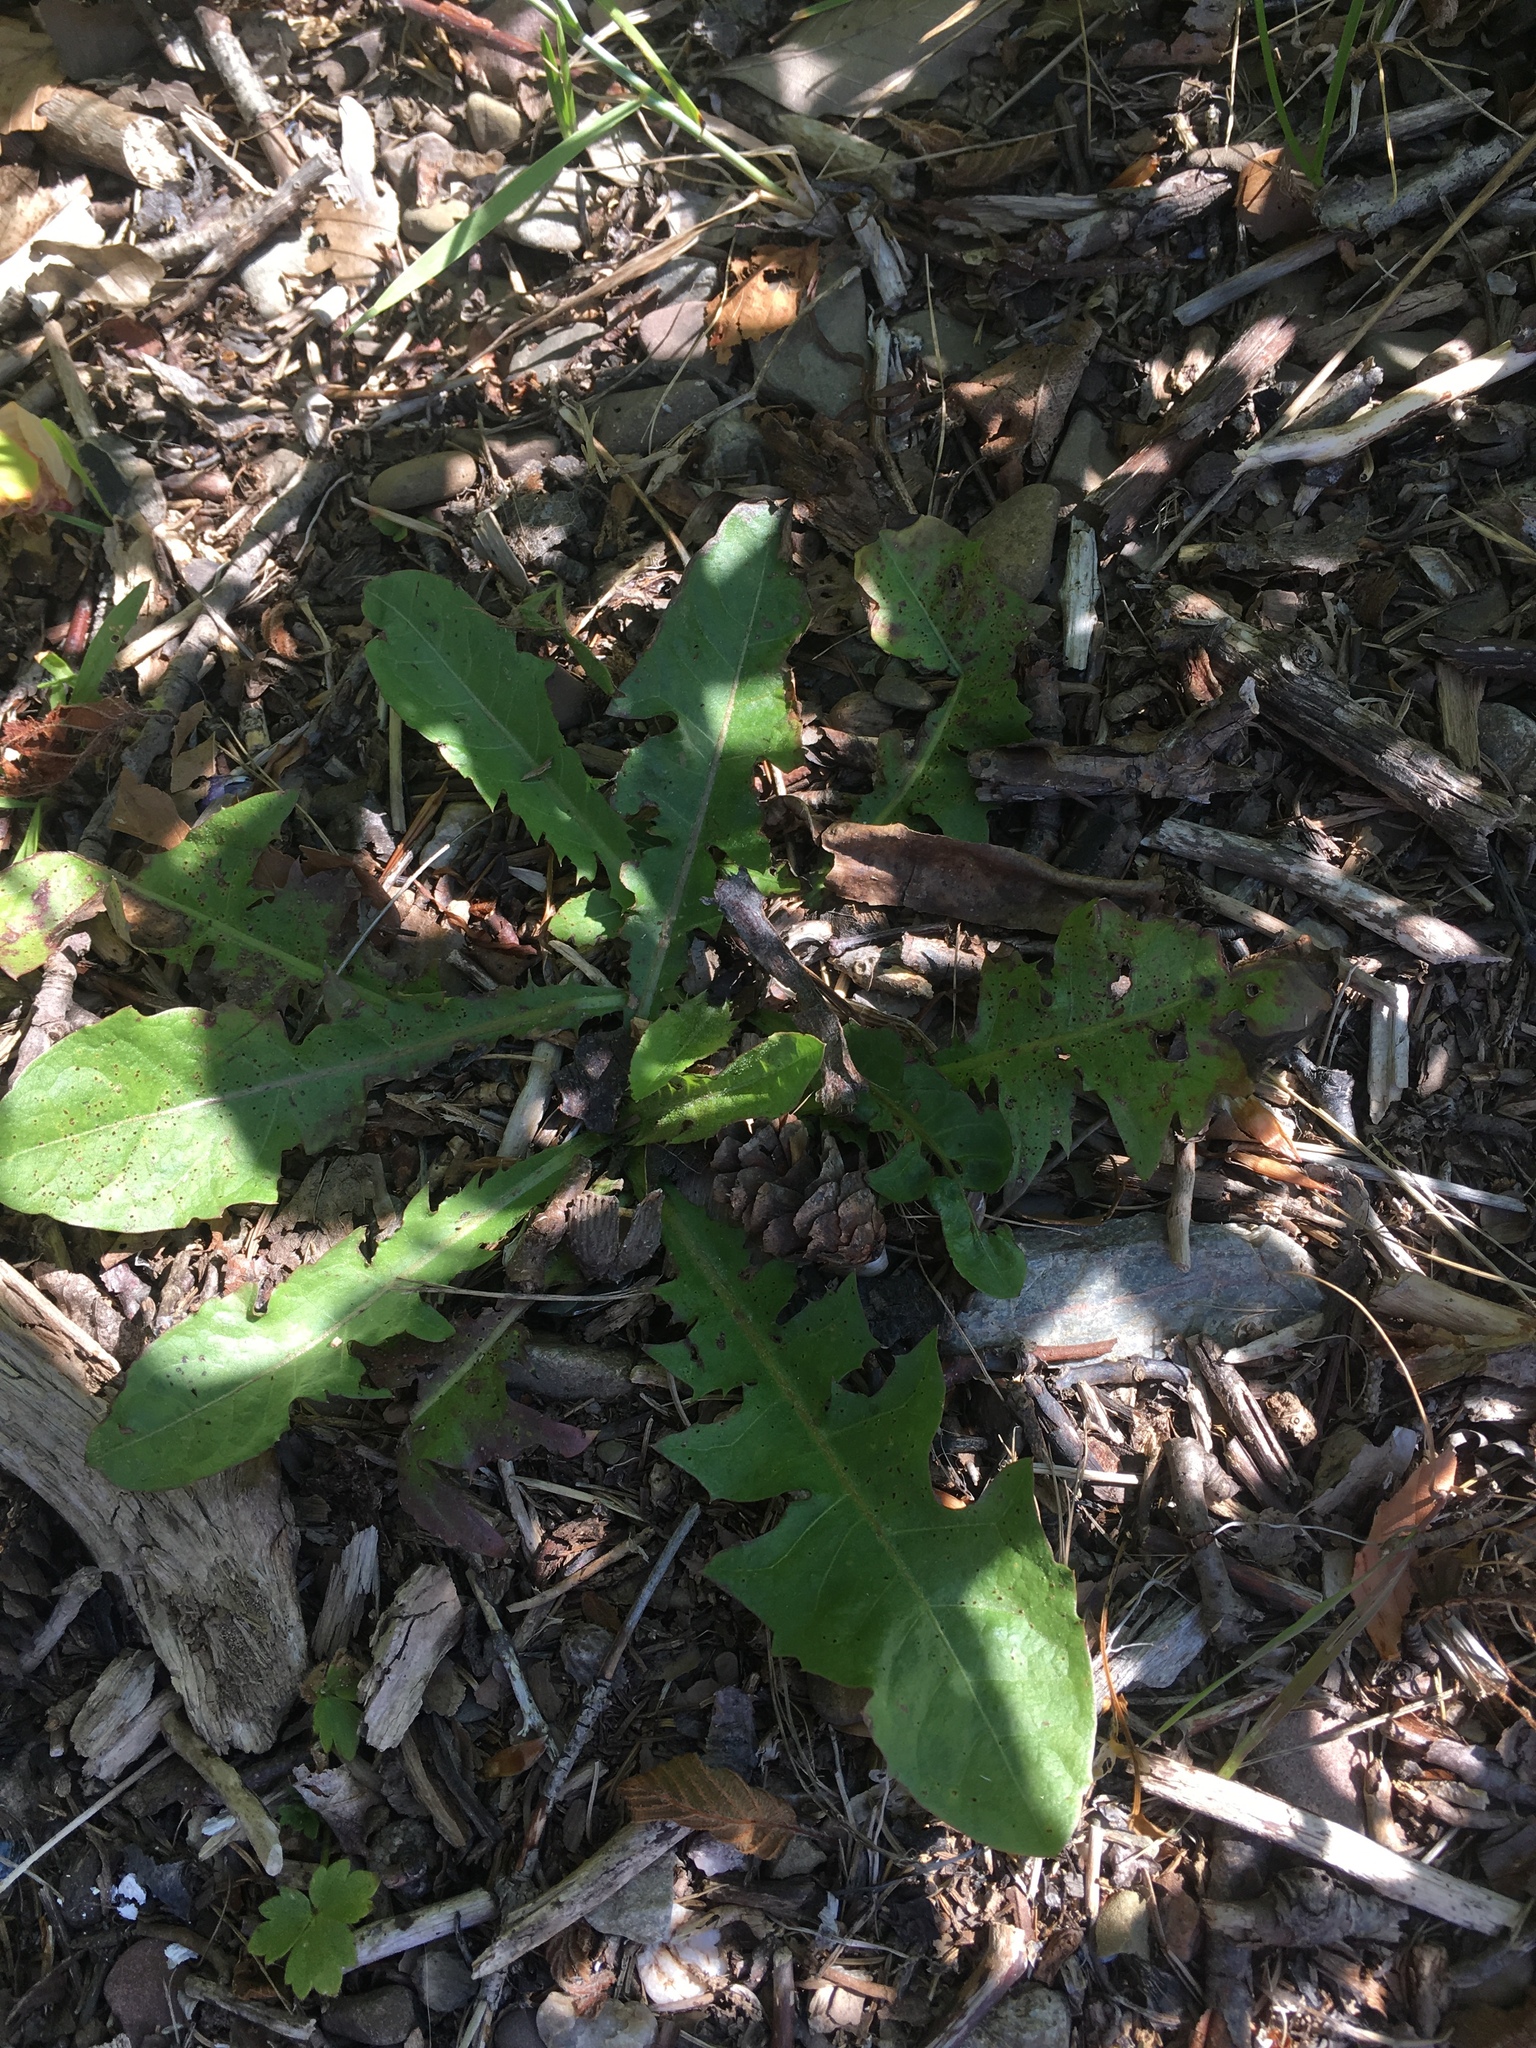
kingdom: Plantae
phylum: Tracheophyta
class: Magnoliopsida
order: Asterales
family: Asteraceae
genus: Taraxacum
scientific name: Taraxacum officinale
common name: Common dandelion
